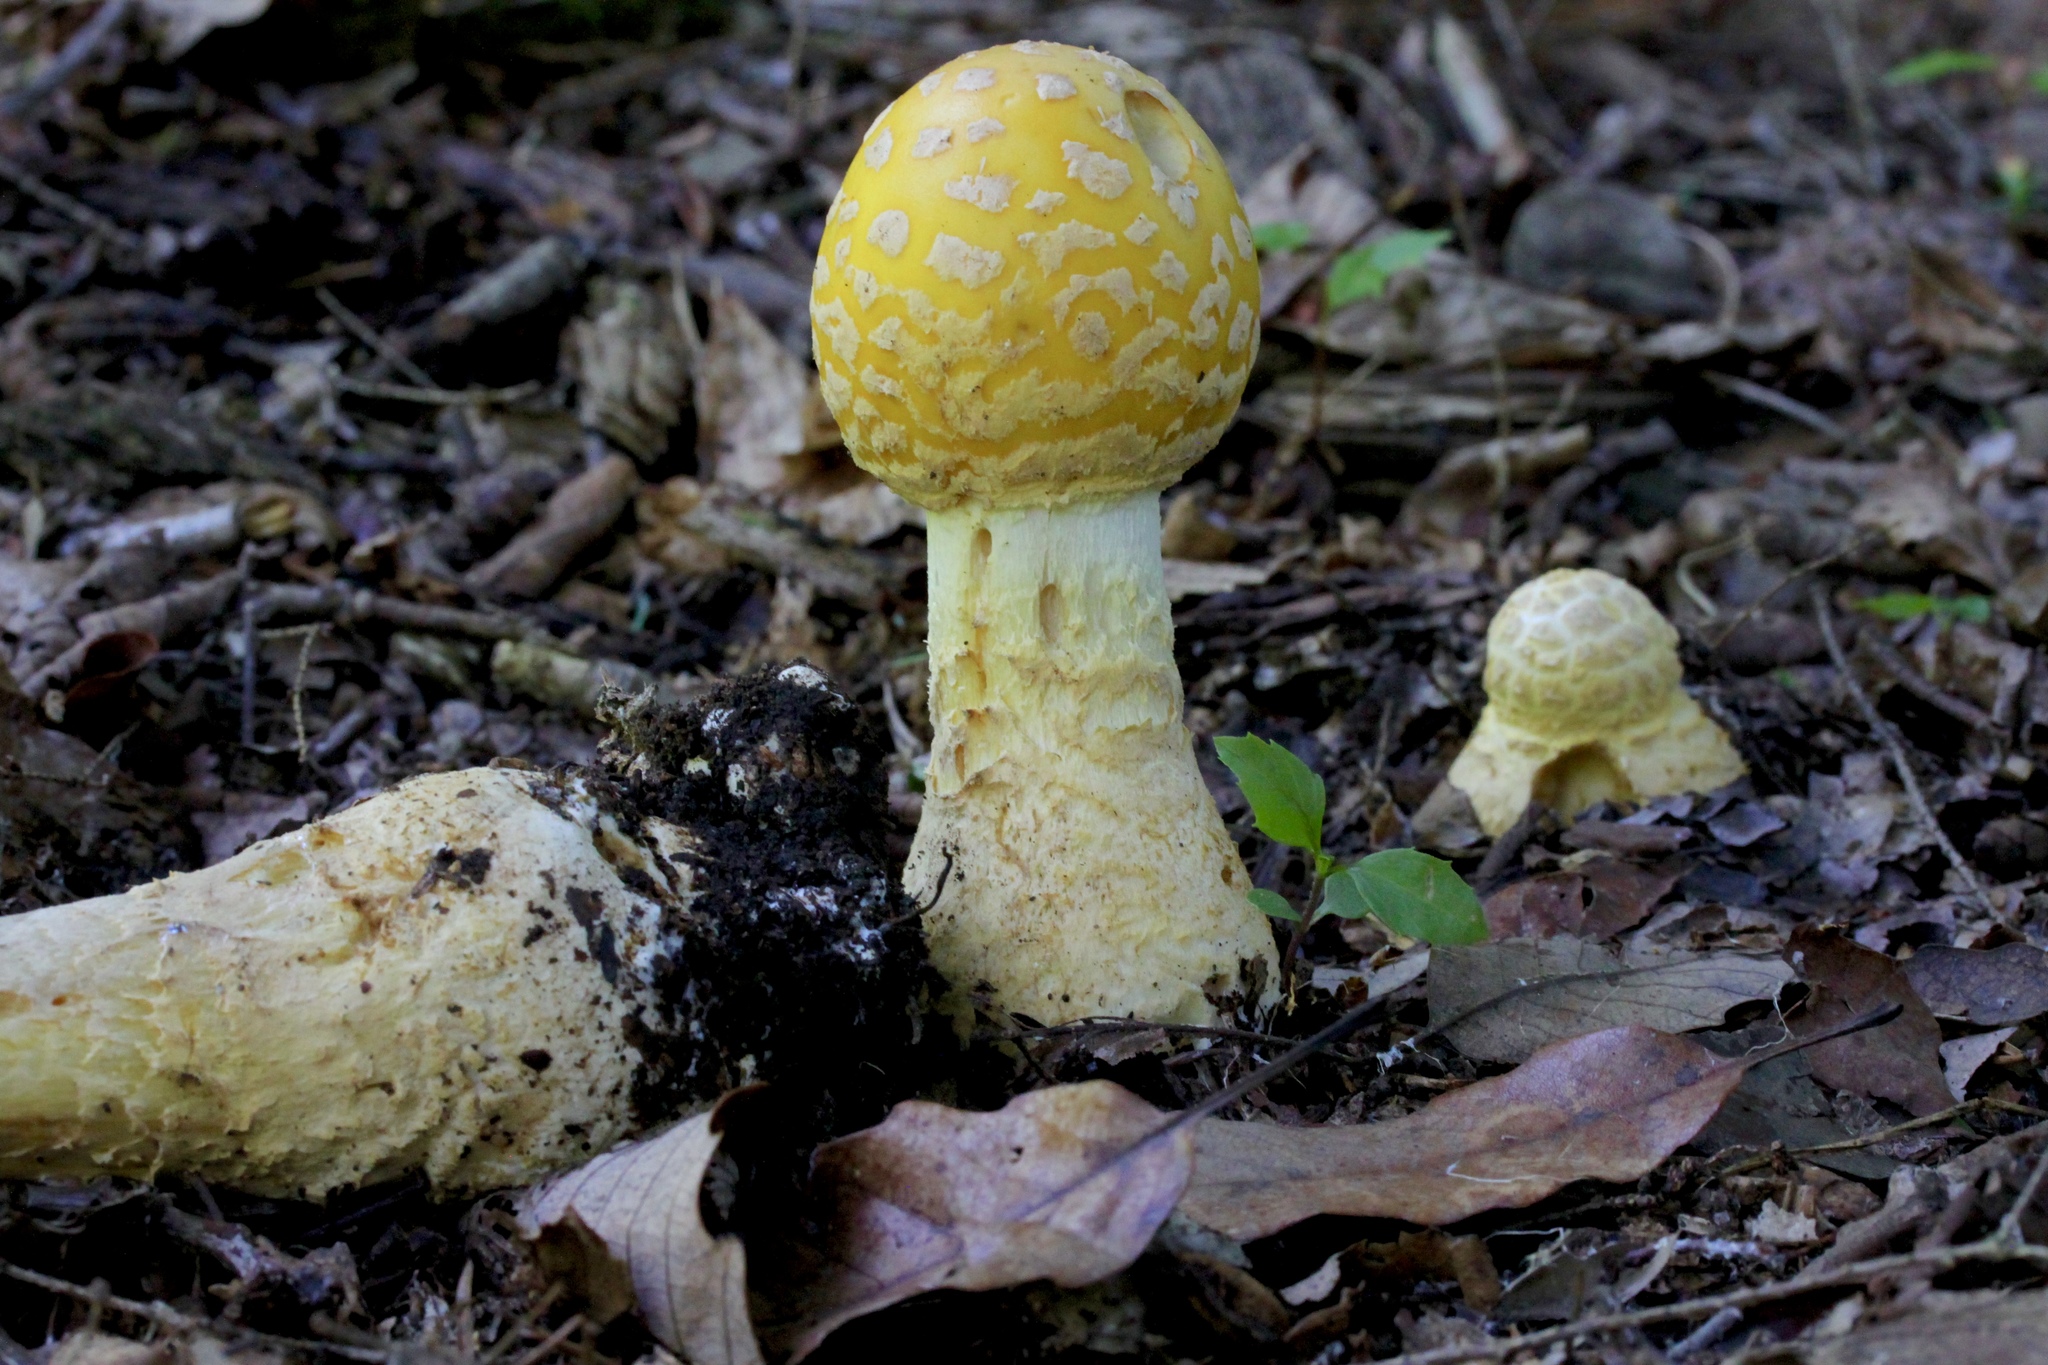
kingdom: Fungi
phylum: Basidiomycota
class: Agaricomycetes
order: Agaricales
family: Amanitaceae
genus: Amanita
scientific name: Amanita muscaria
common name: Fly agaric
